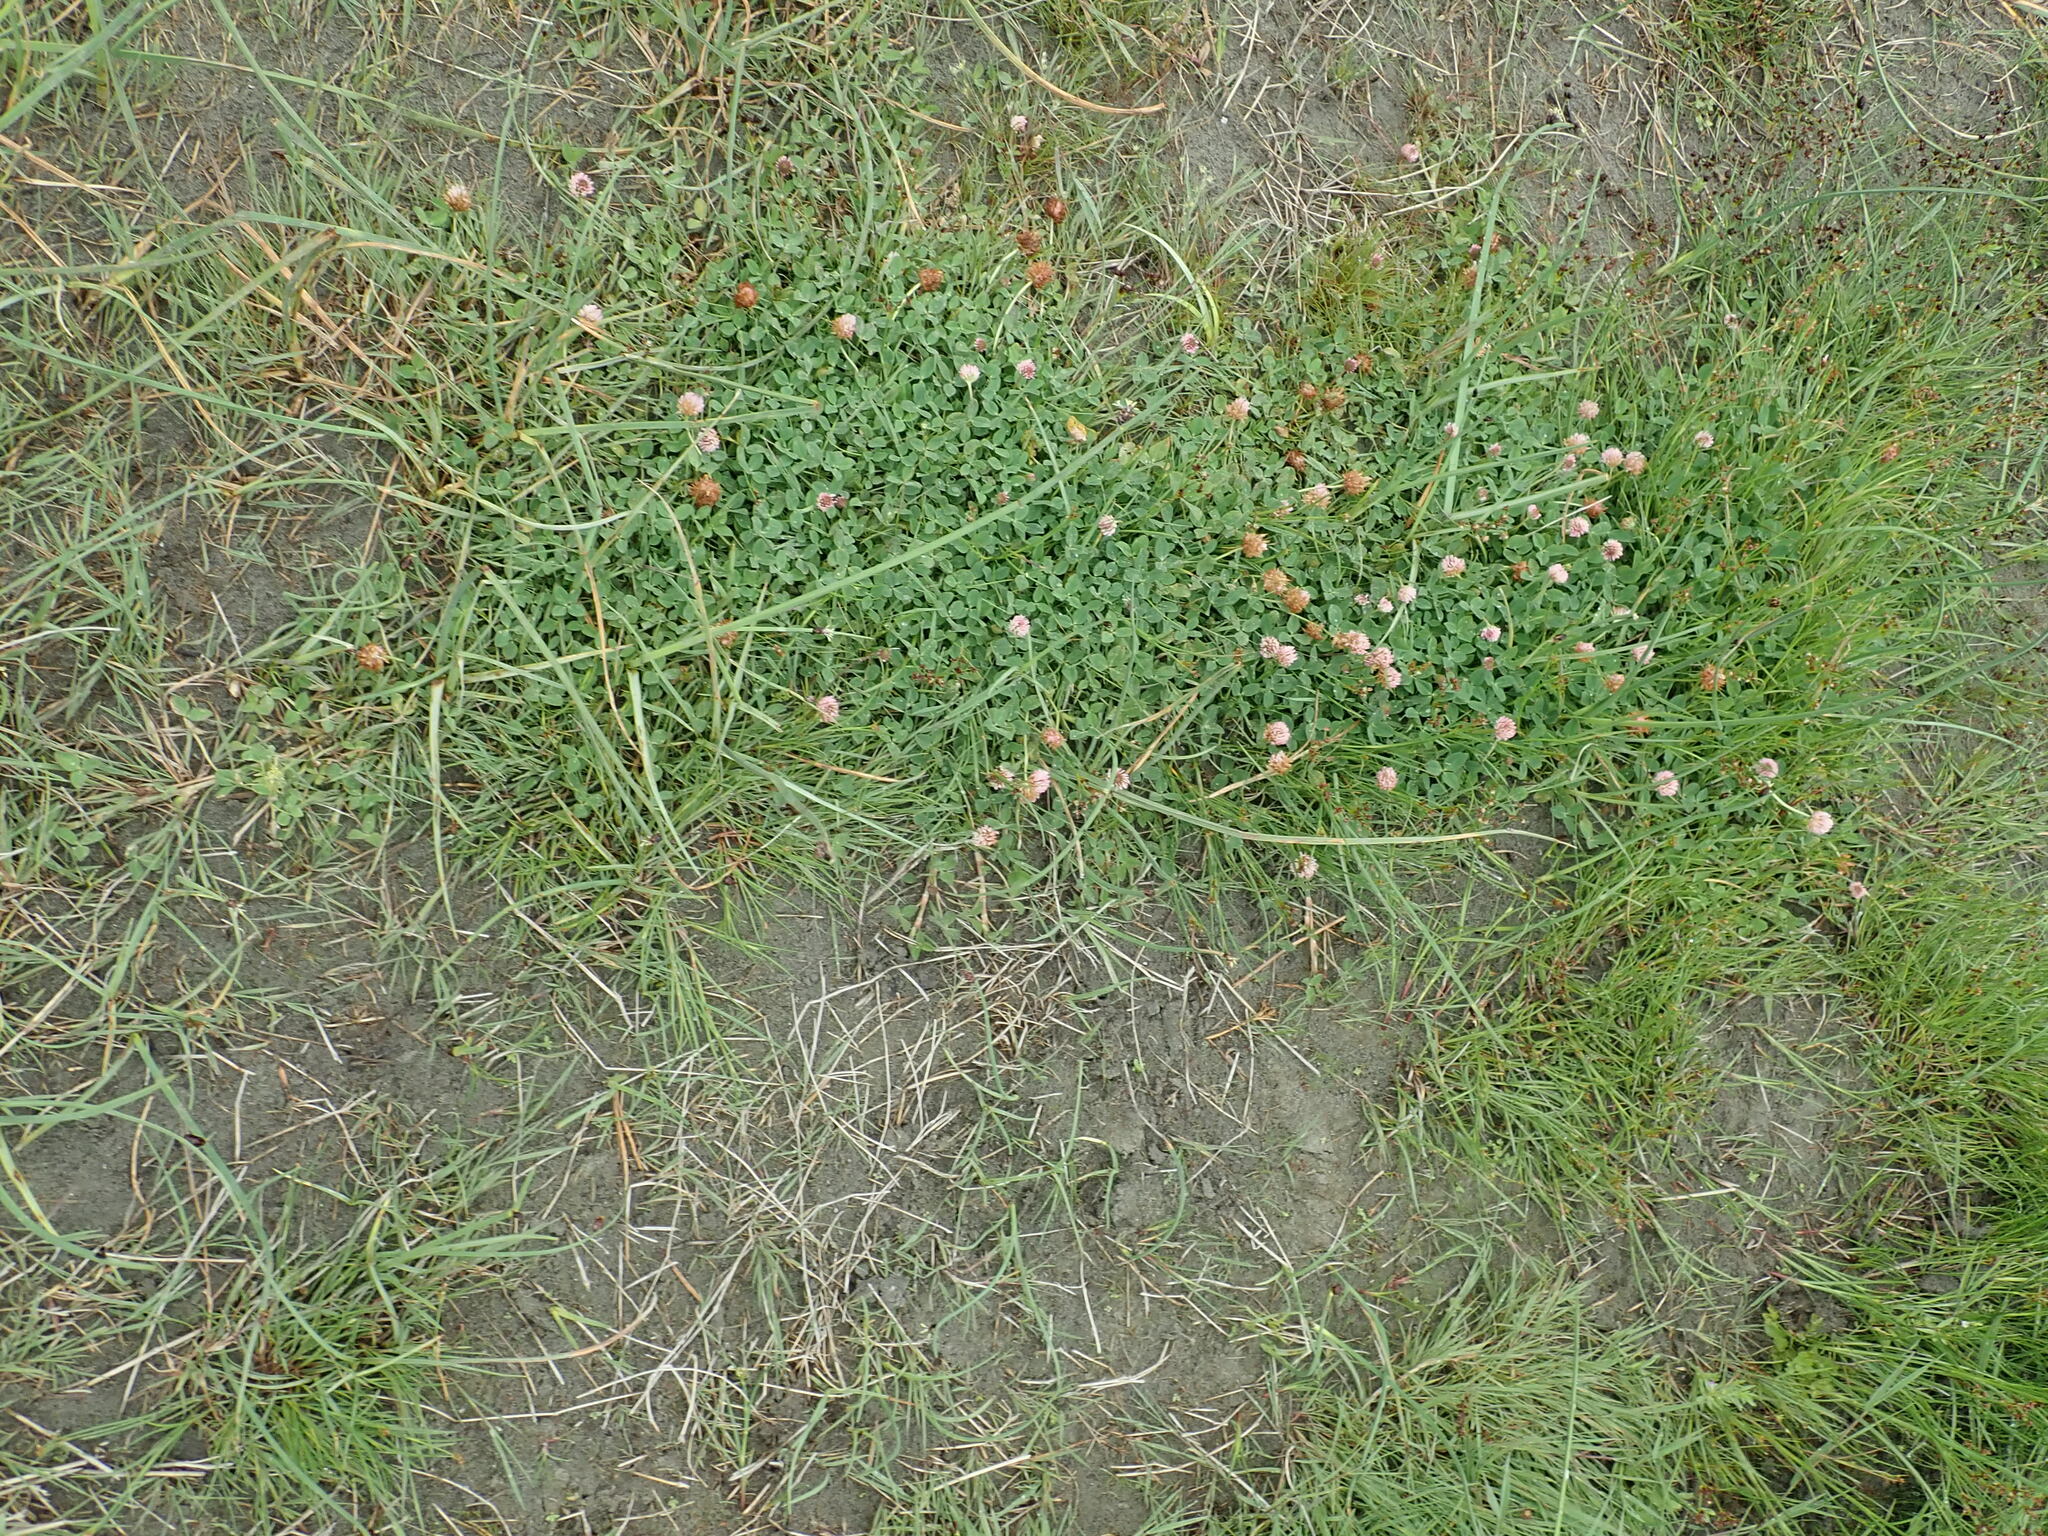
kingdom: Plantae
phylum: Tracheophyta
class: Magnoliopsida
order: Fabales
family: Fabaceae
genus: Trifolium
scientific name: Trifolium fragiferum
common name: Strawberry clover
